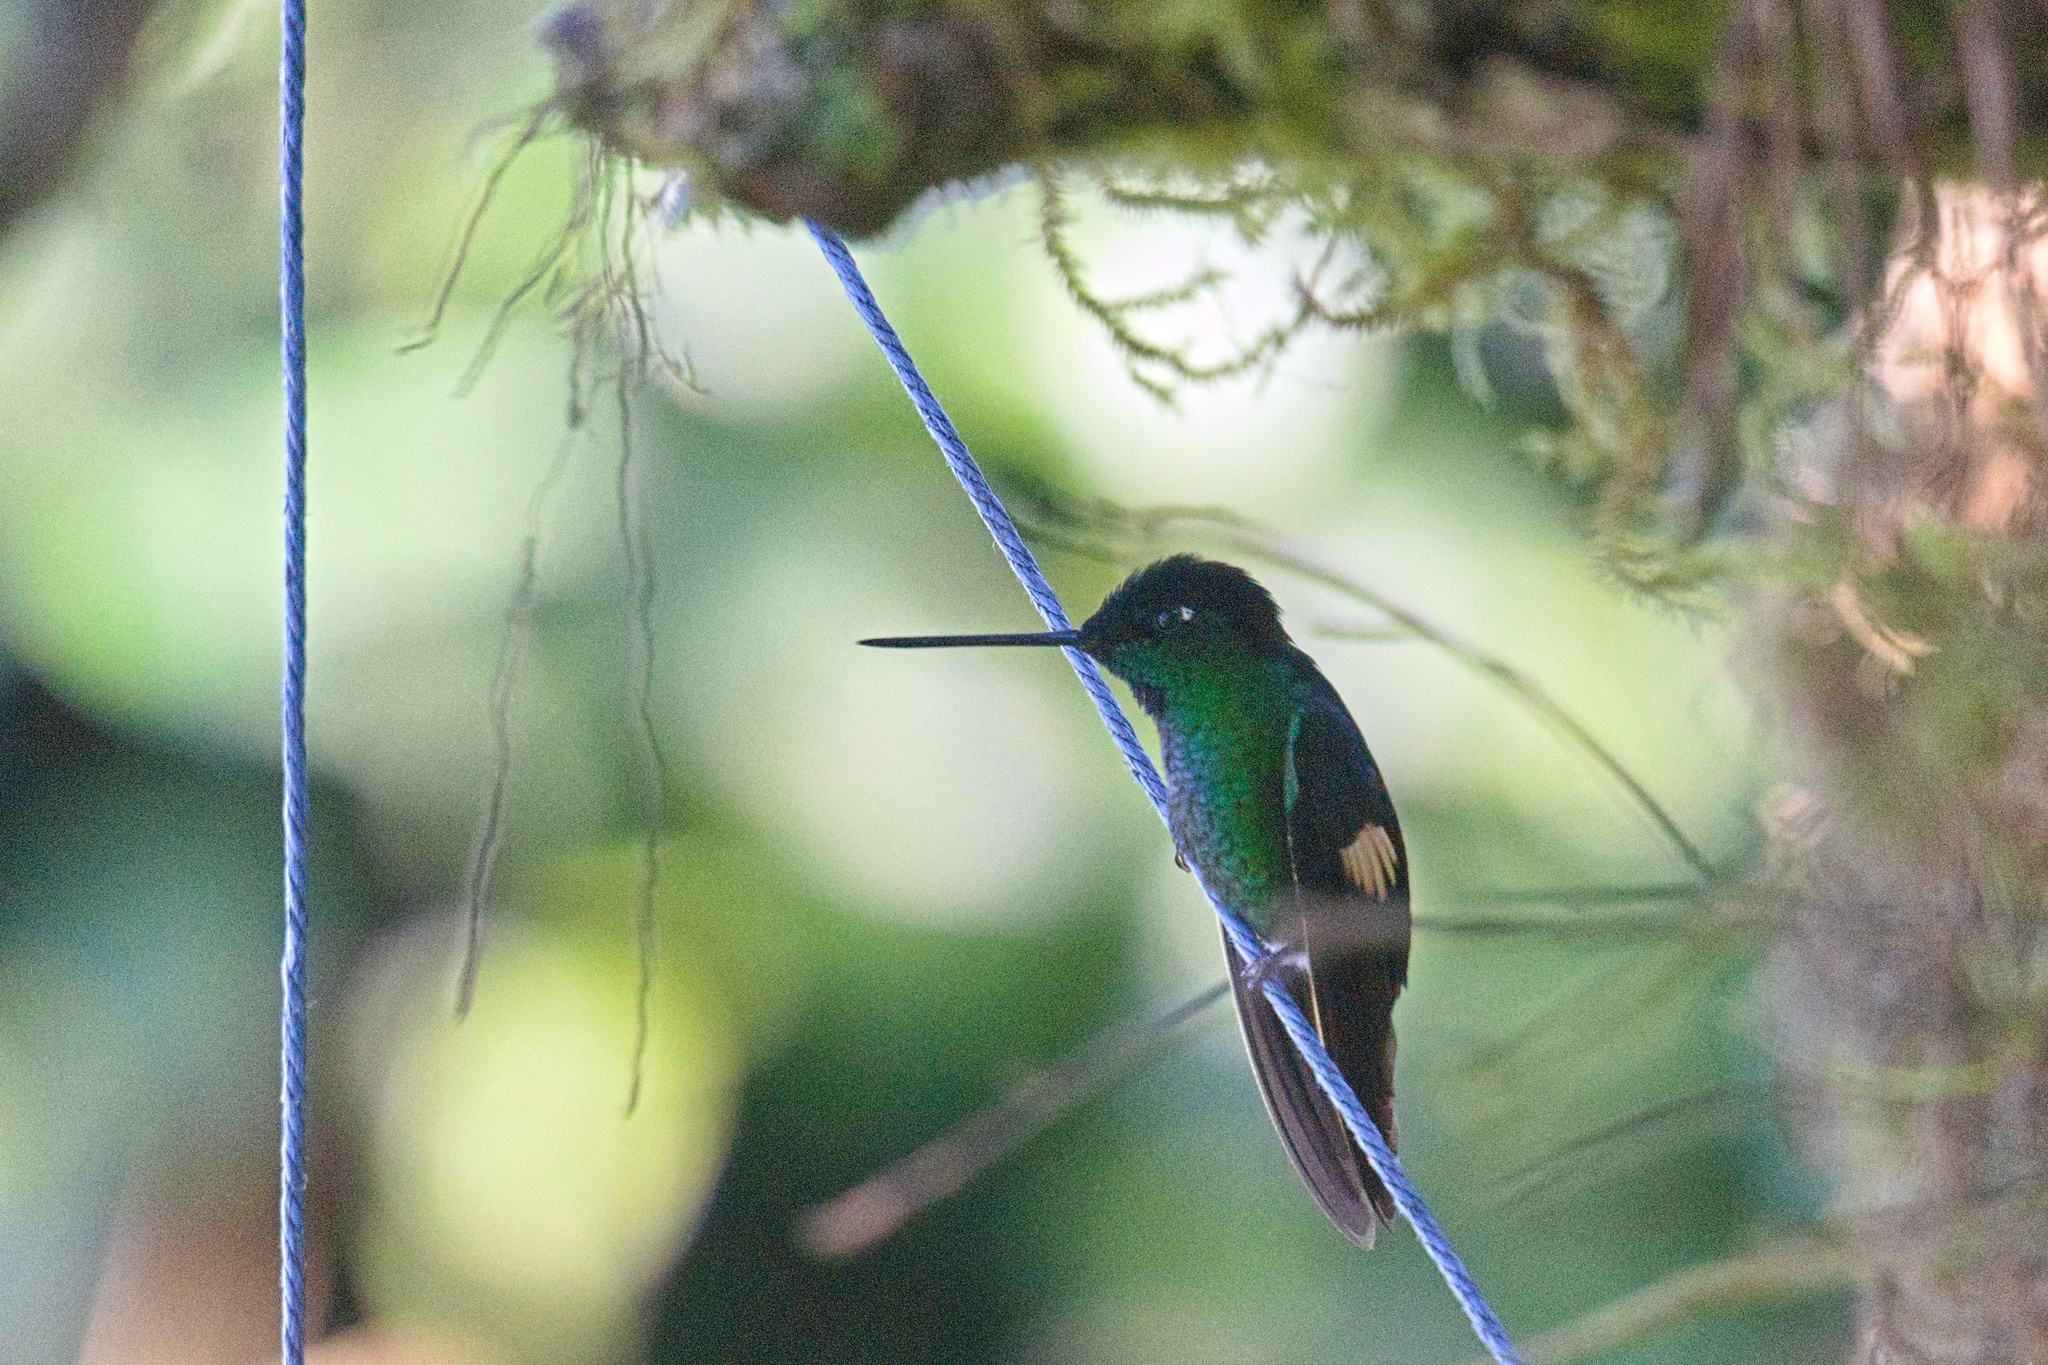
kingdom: Animalia
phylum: Chordata
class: Aves
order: Apodiformes
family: Trochilidae
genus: Coeligena
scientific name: Coeligena lutetiae
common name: Buff-winged starfrontlet
